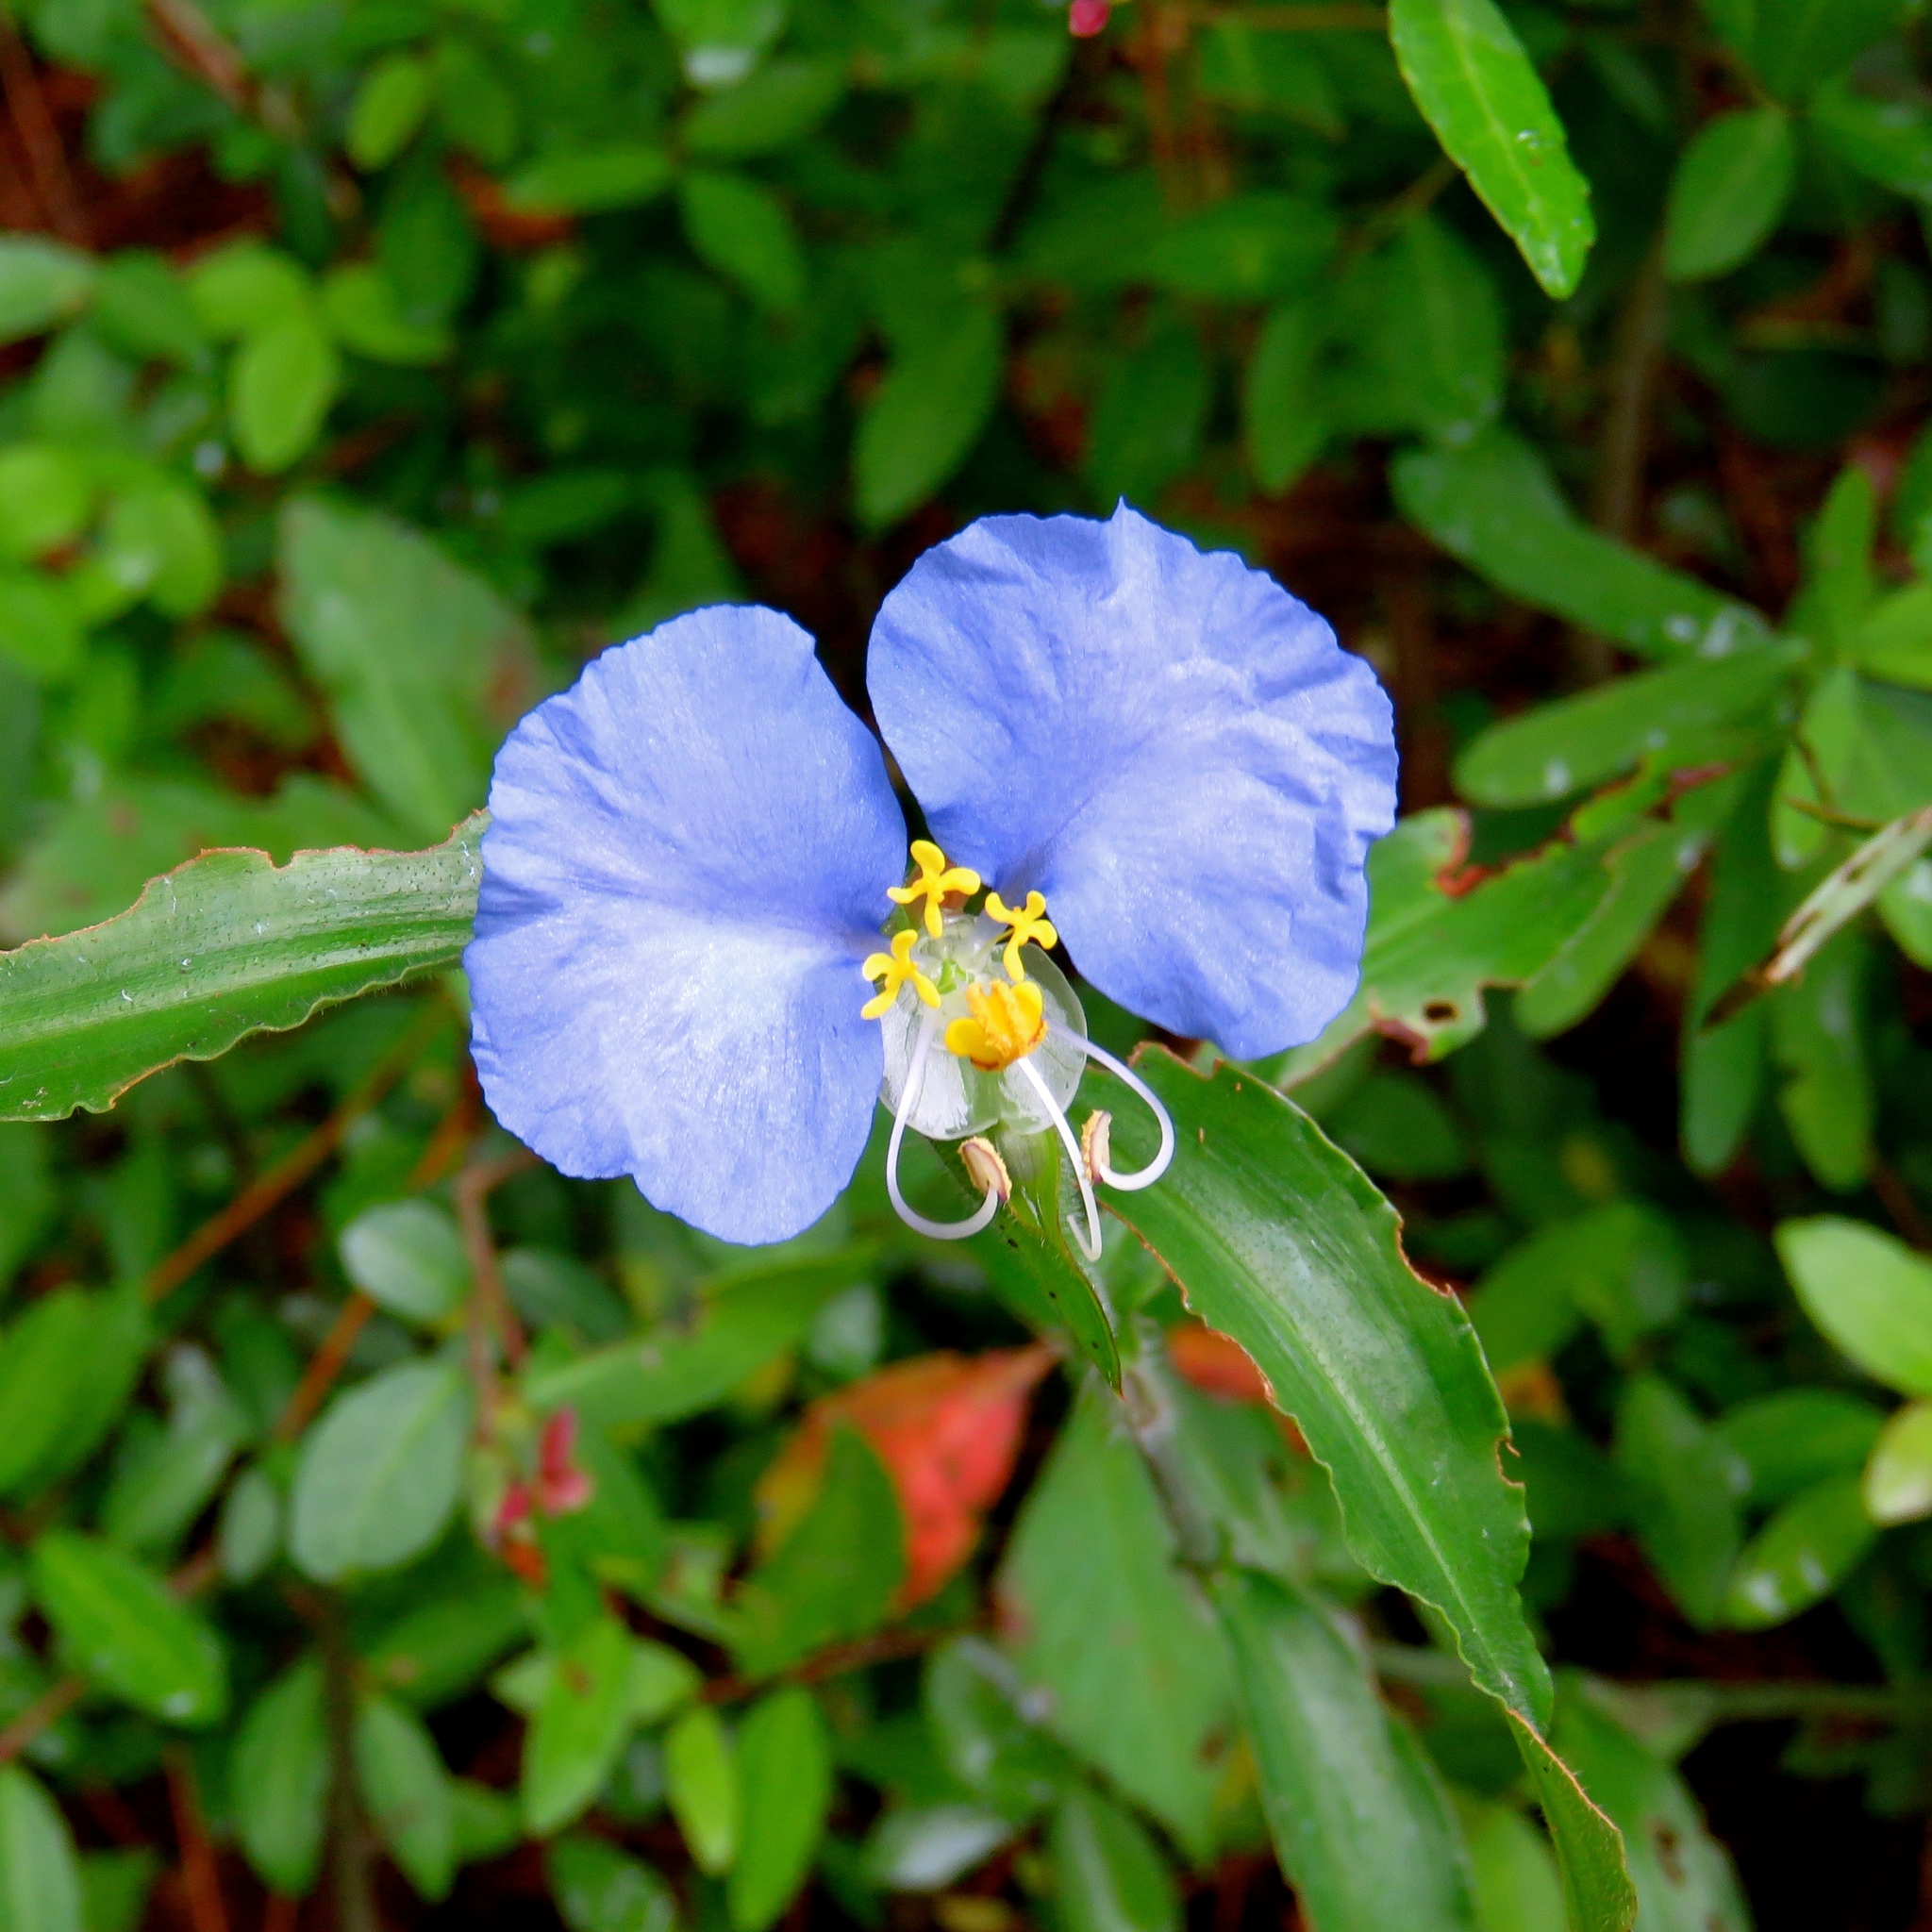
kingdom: Plantae
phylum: Tracheophyta
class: Liliopsida
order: Commelinales
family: Commelinaceae
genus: Commelina
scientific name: Commelina erecta
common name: Blousel blommetjie
